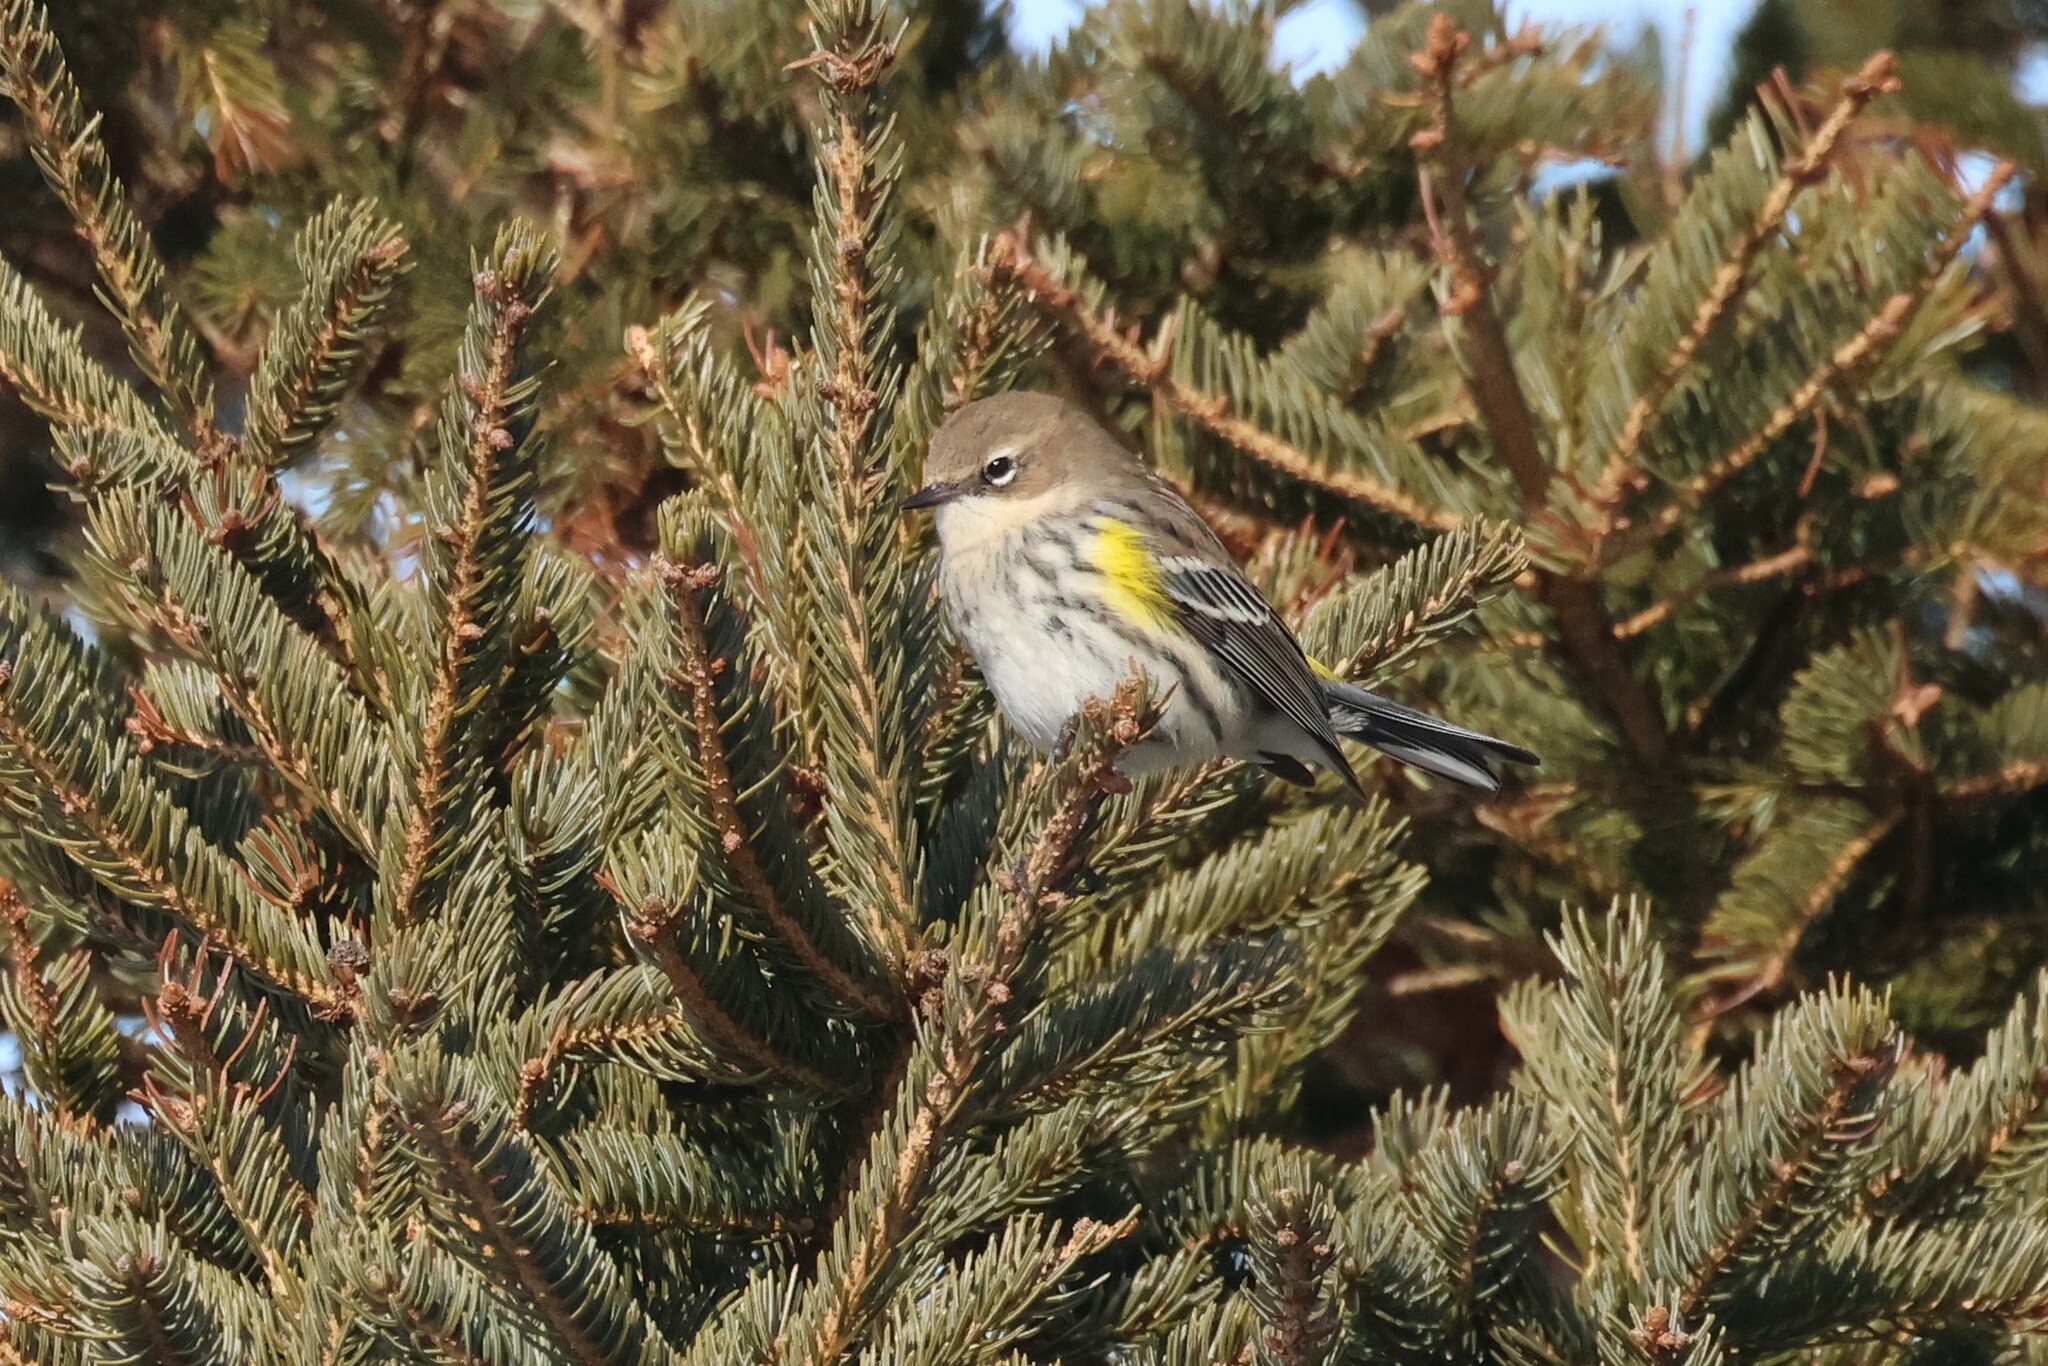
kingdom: Animalia
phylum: Chordata
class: Aves
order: Passeriformes
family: Parulidae
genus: Setophaga
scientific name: Setophaga coronata
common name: Myrtle warbler
